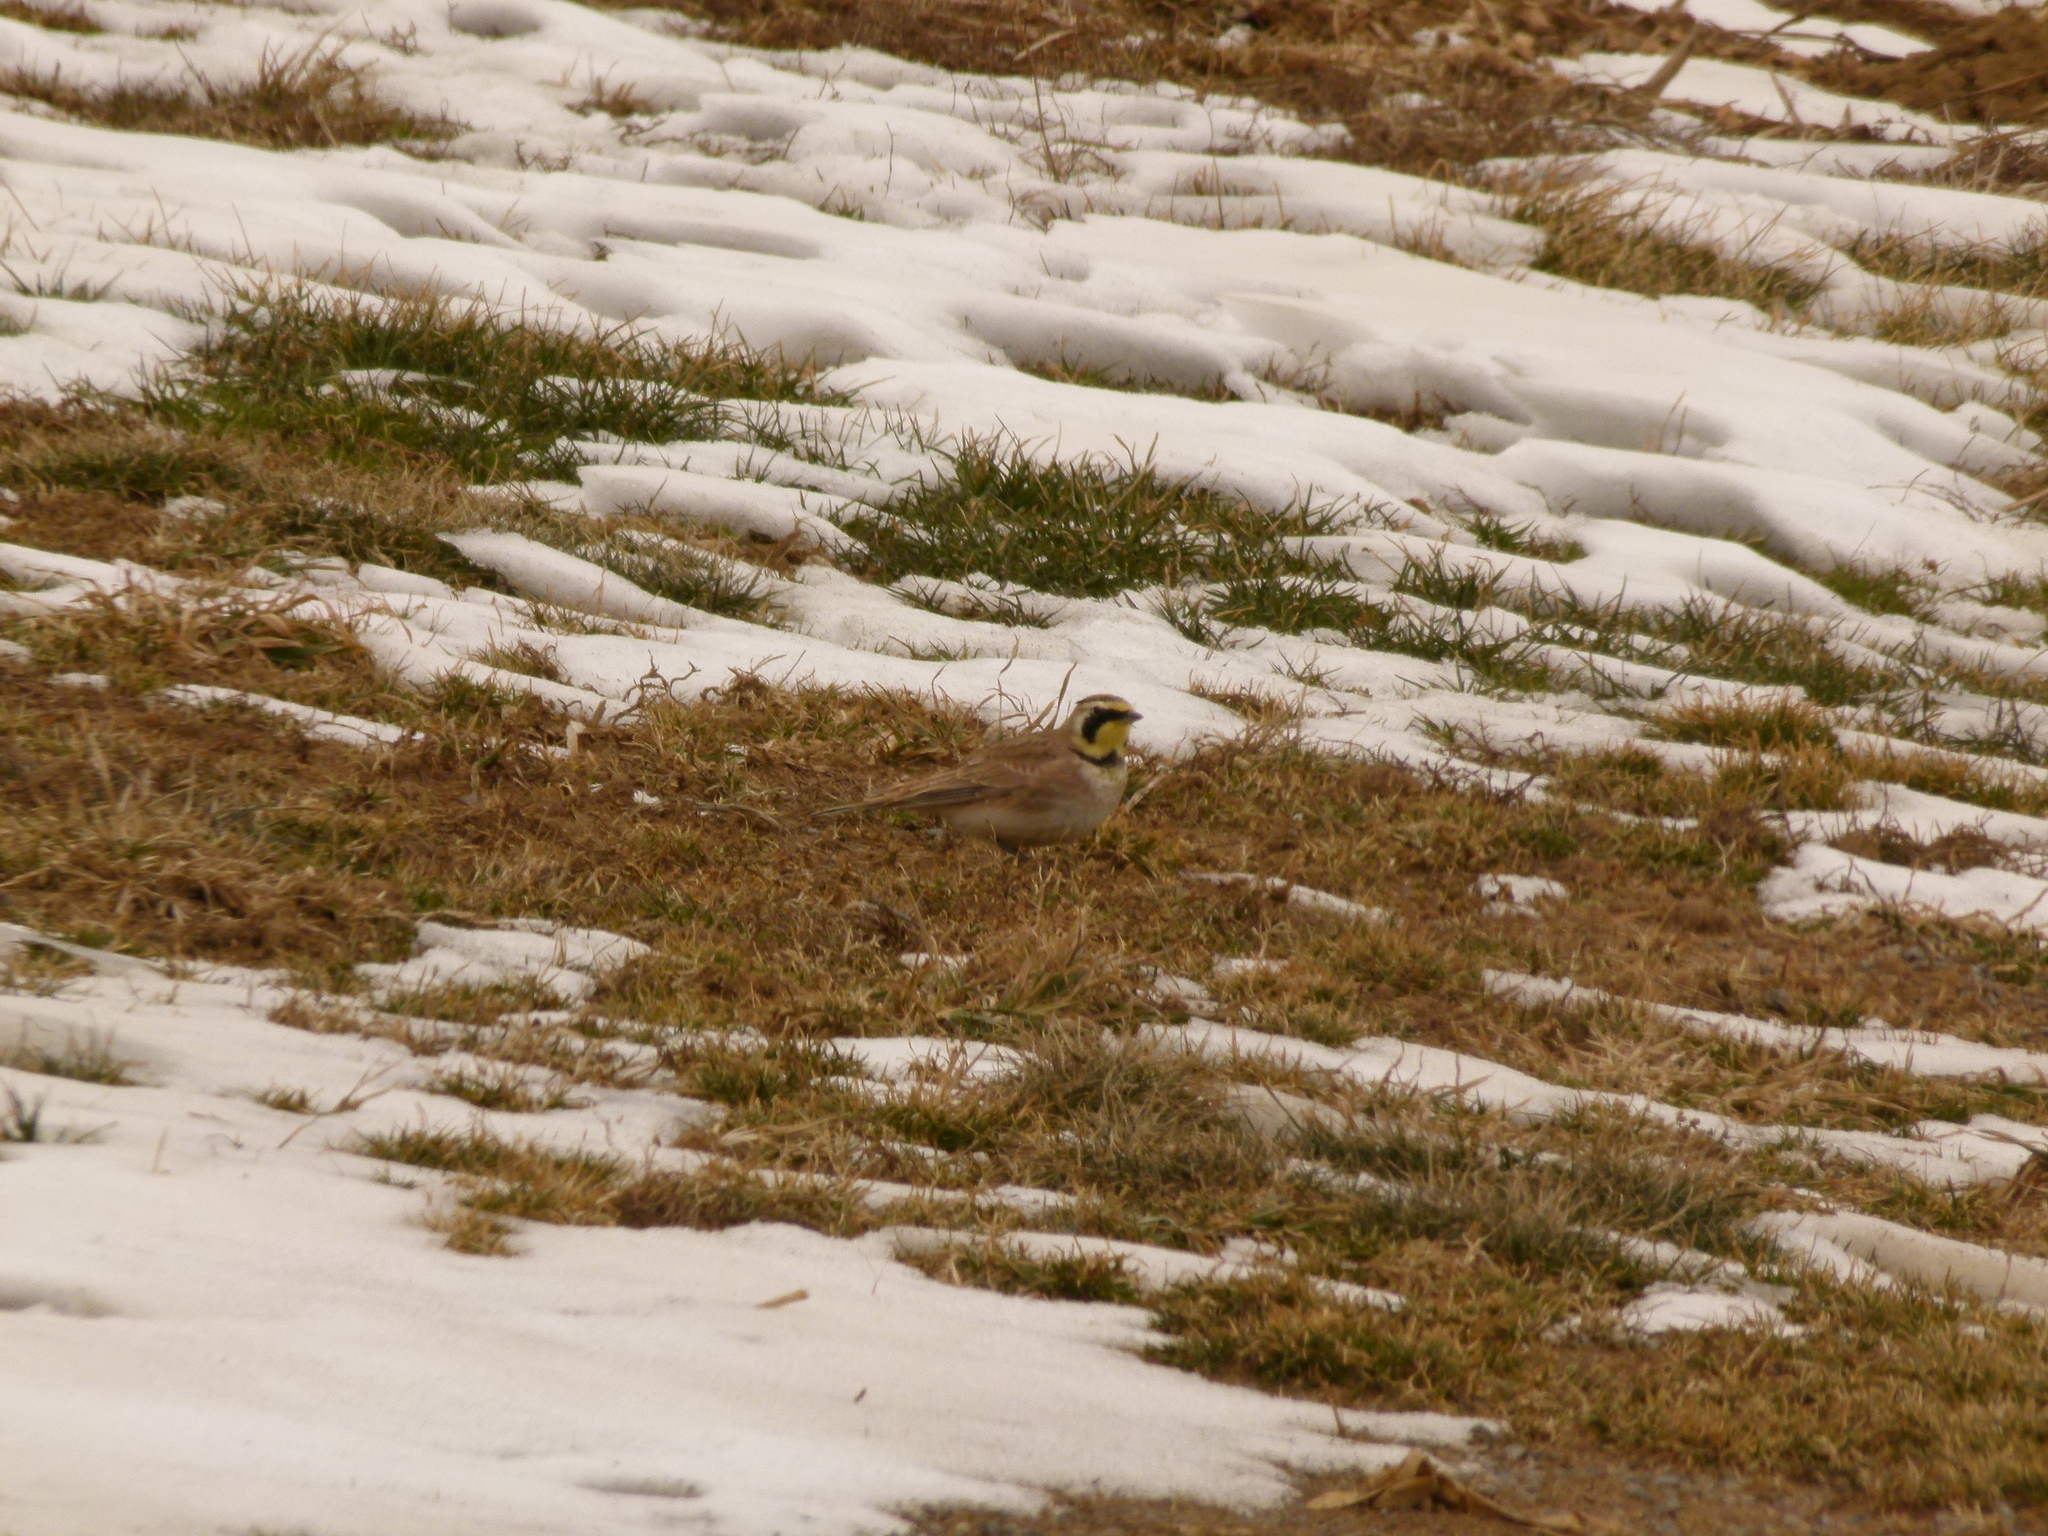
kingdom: Animalia
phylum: Chordata
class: Aves
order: Passeriformes
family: Alaudidae
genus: Eremophila
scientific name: Eremophila alpestris
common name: Horned lark
